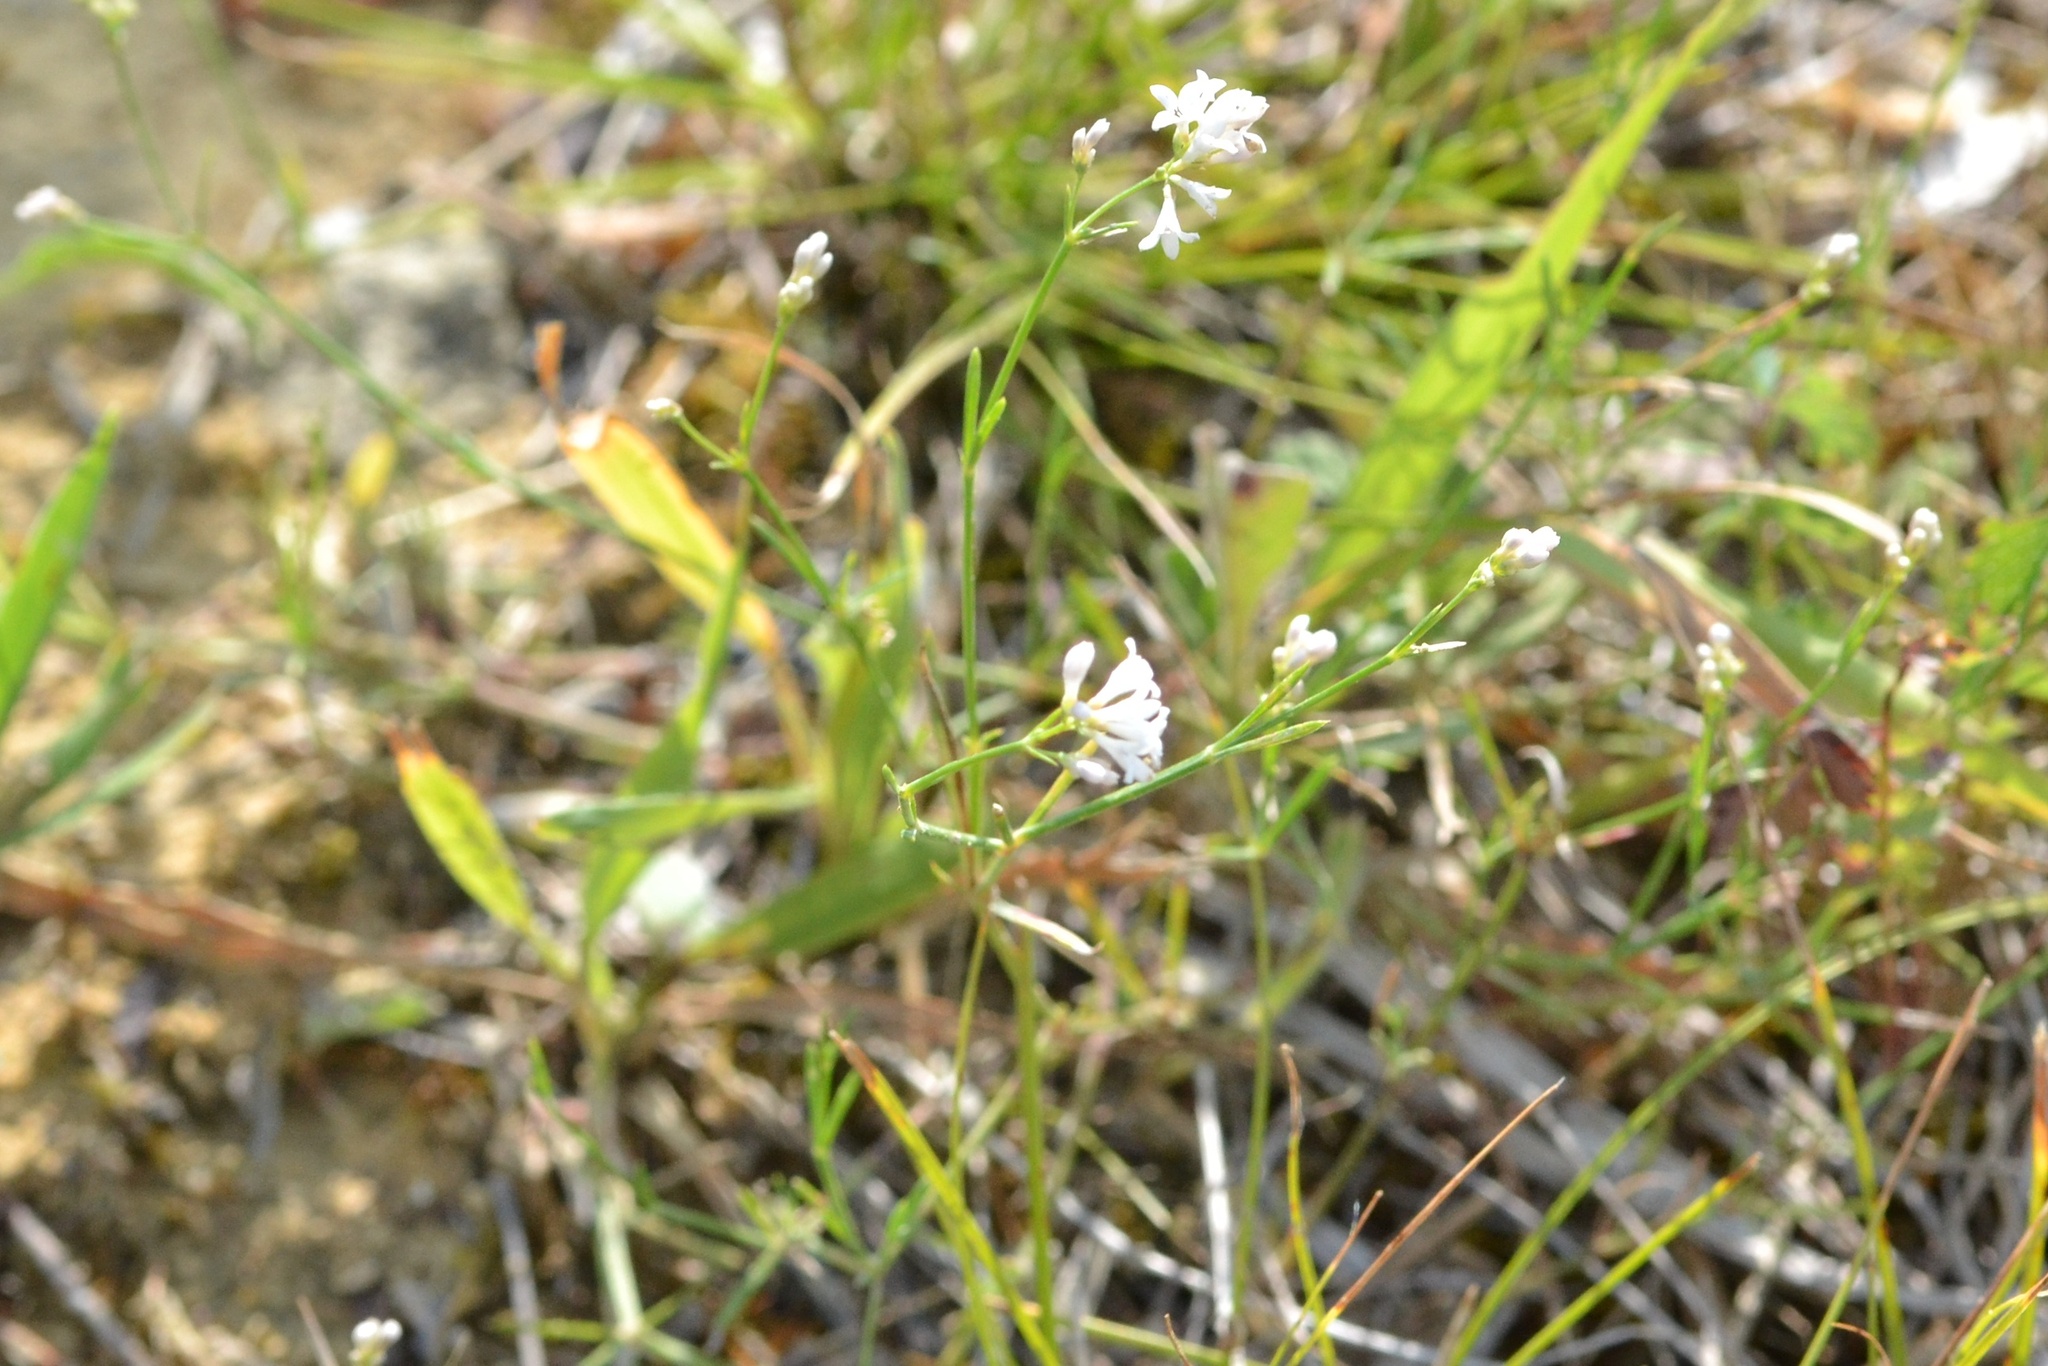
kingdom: Plantae
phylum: Tracheophyta
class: Magnoliopsida
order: Gentianales
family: Rubiaceae
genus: Cynanchica
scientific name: Cynanchica pyrenaica
